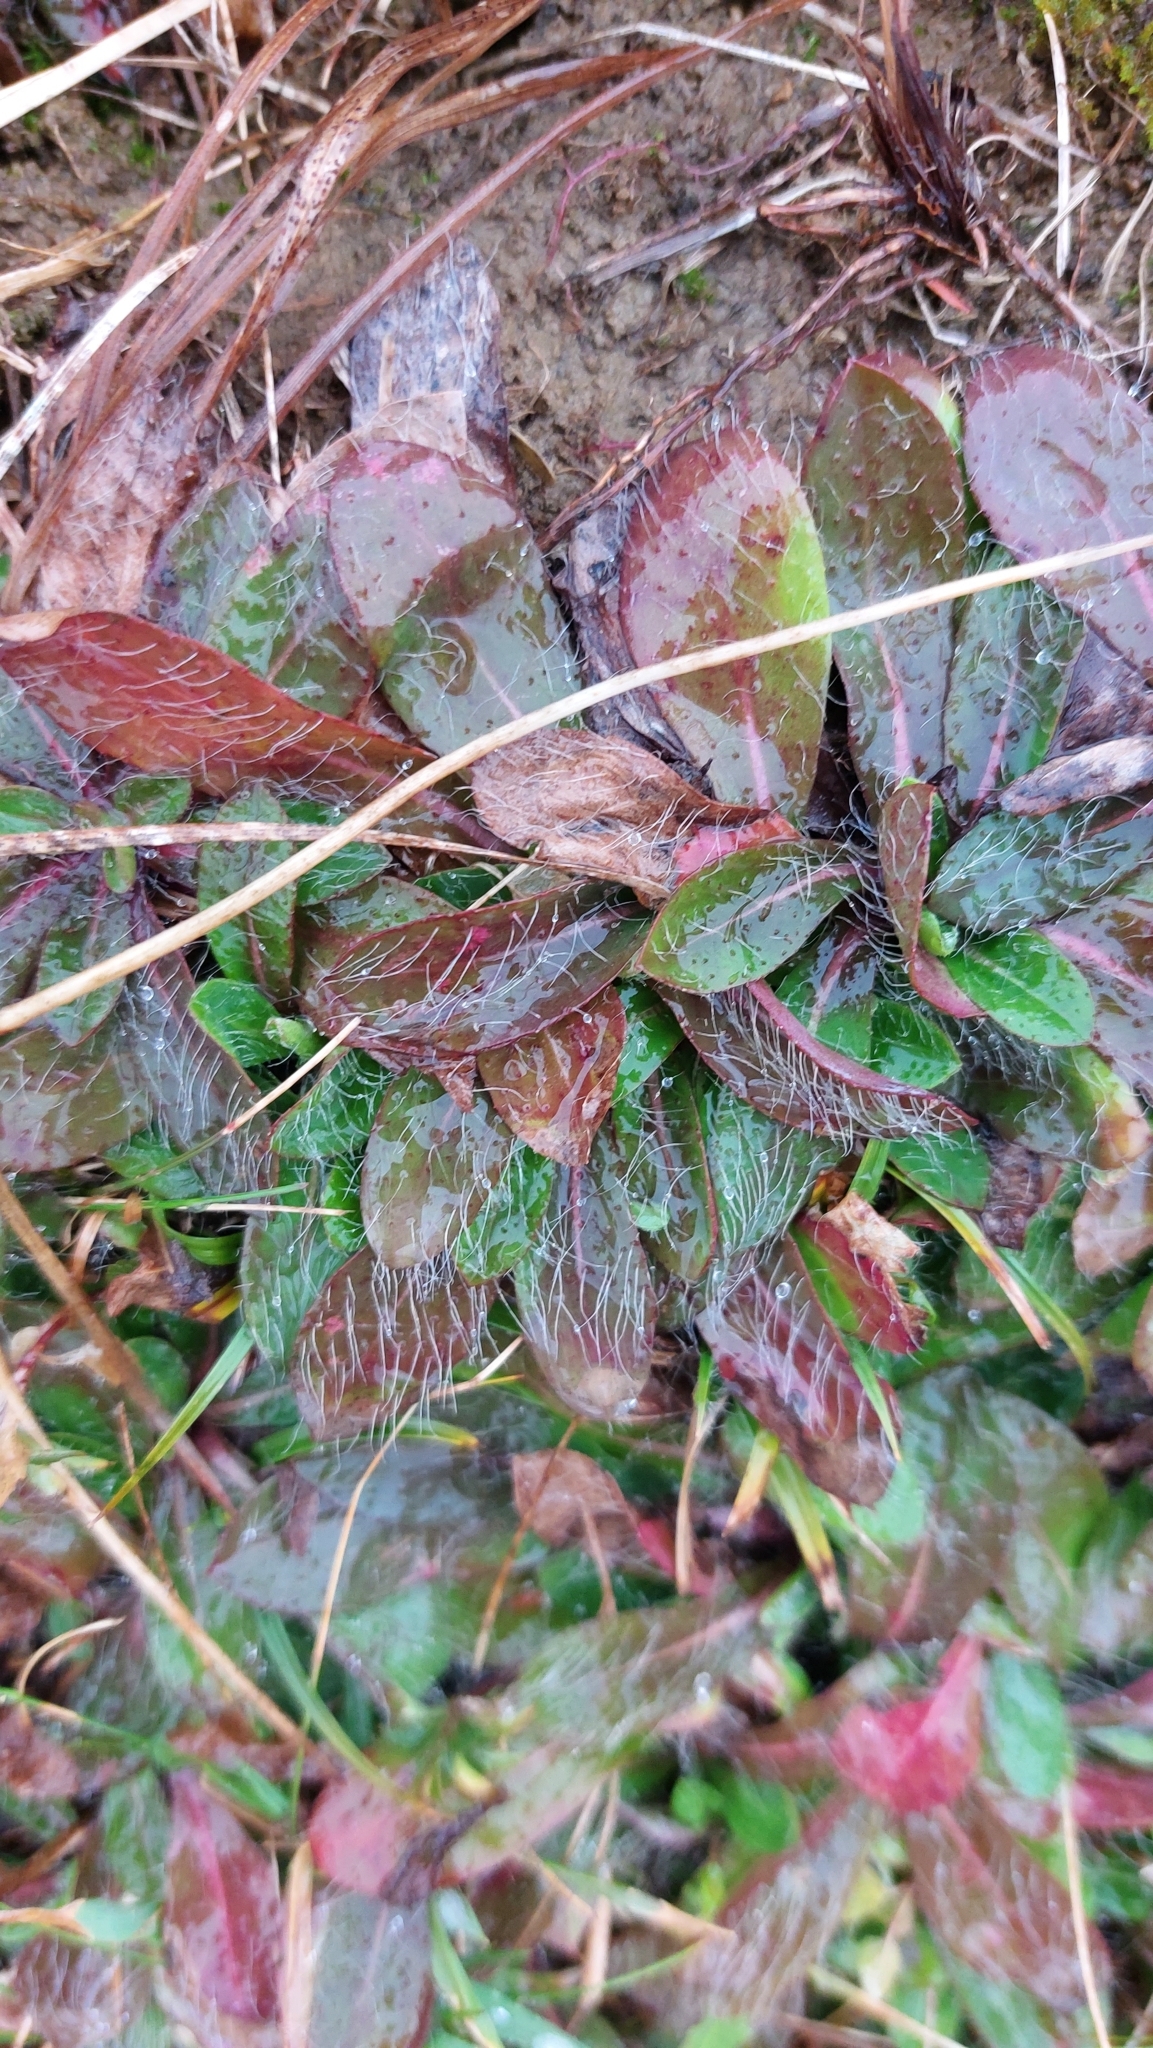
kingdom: Plantae
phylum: Tracheophyta
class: Magnoliopsida
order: Asterales
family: Asteraceae
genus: Pilosella
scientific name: Pilosella officinarum
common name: Mouse-ear hawkweed
